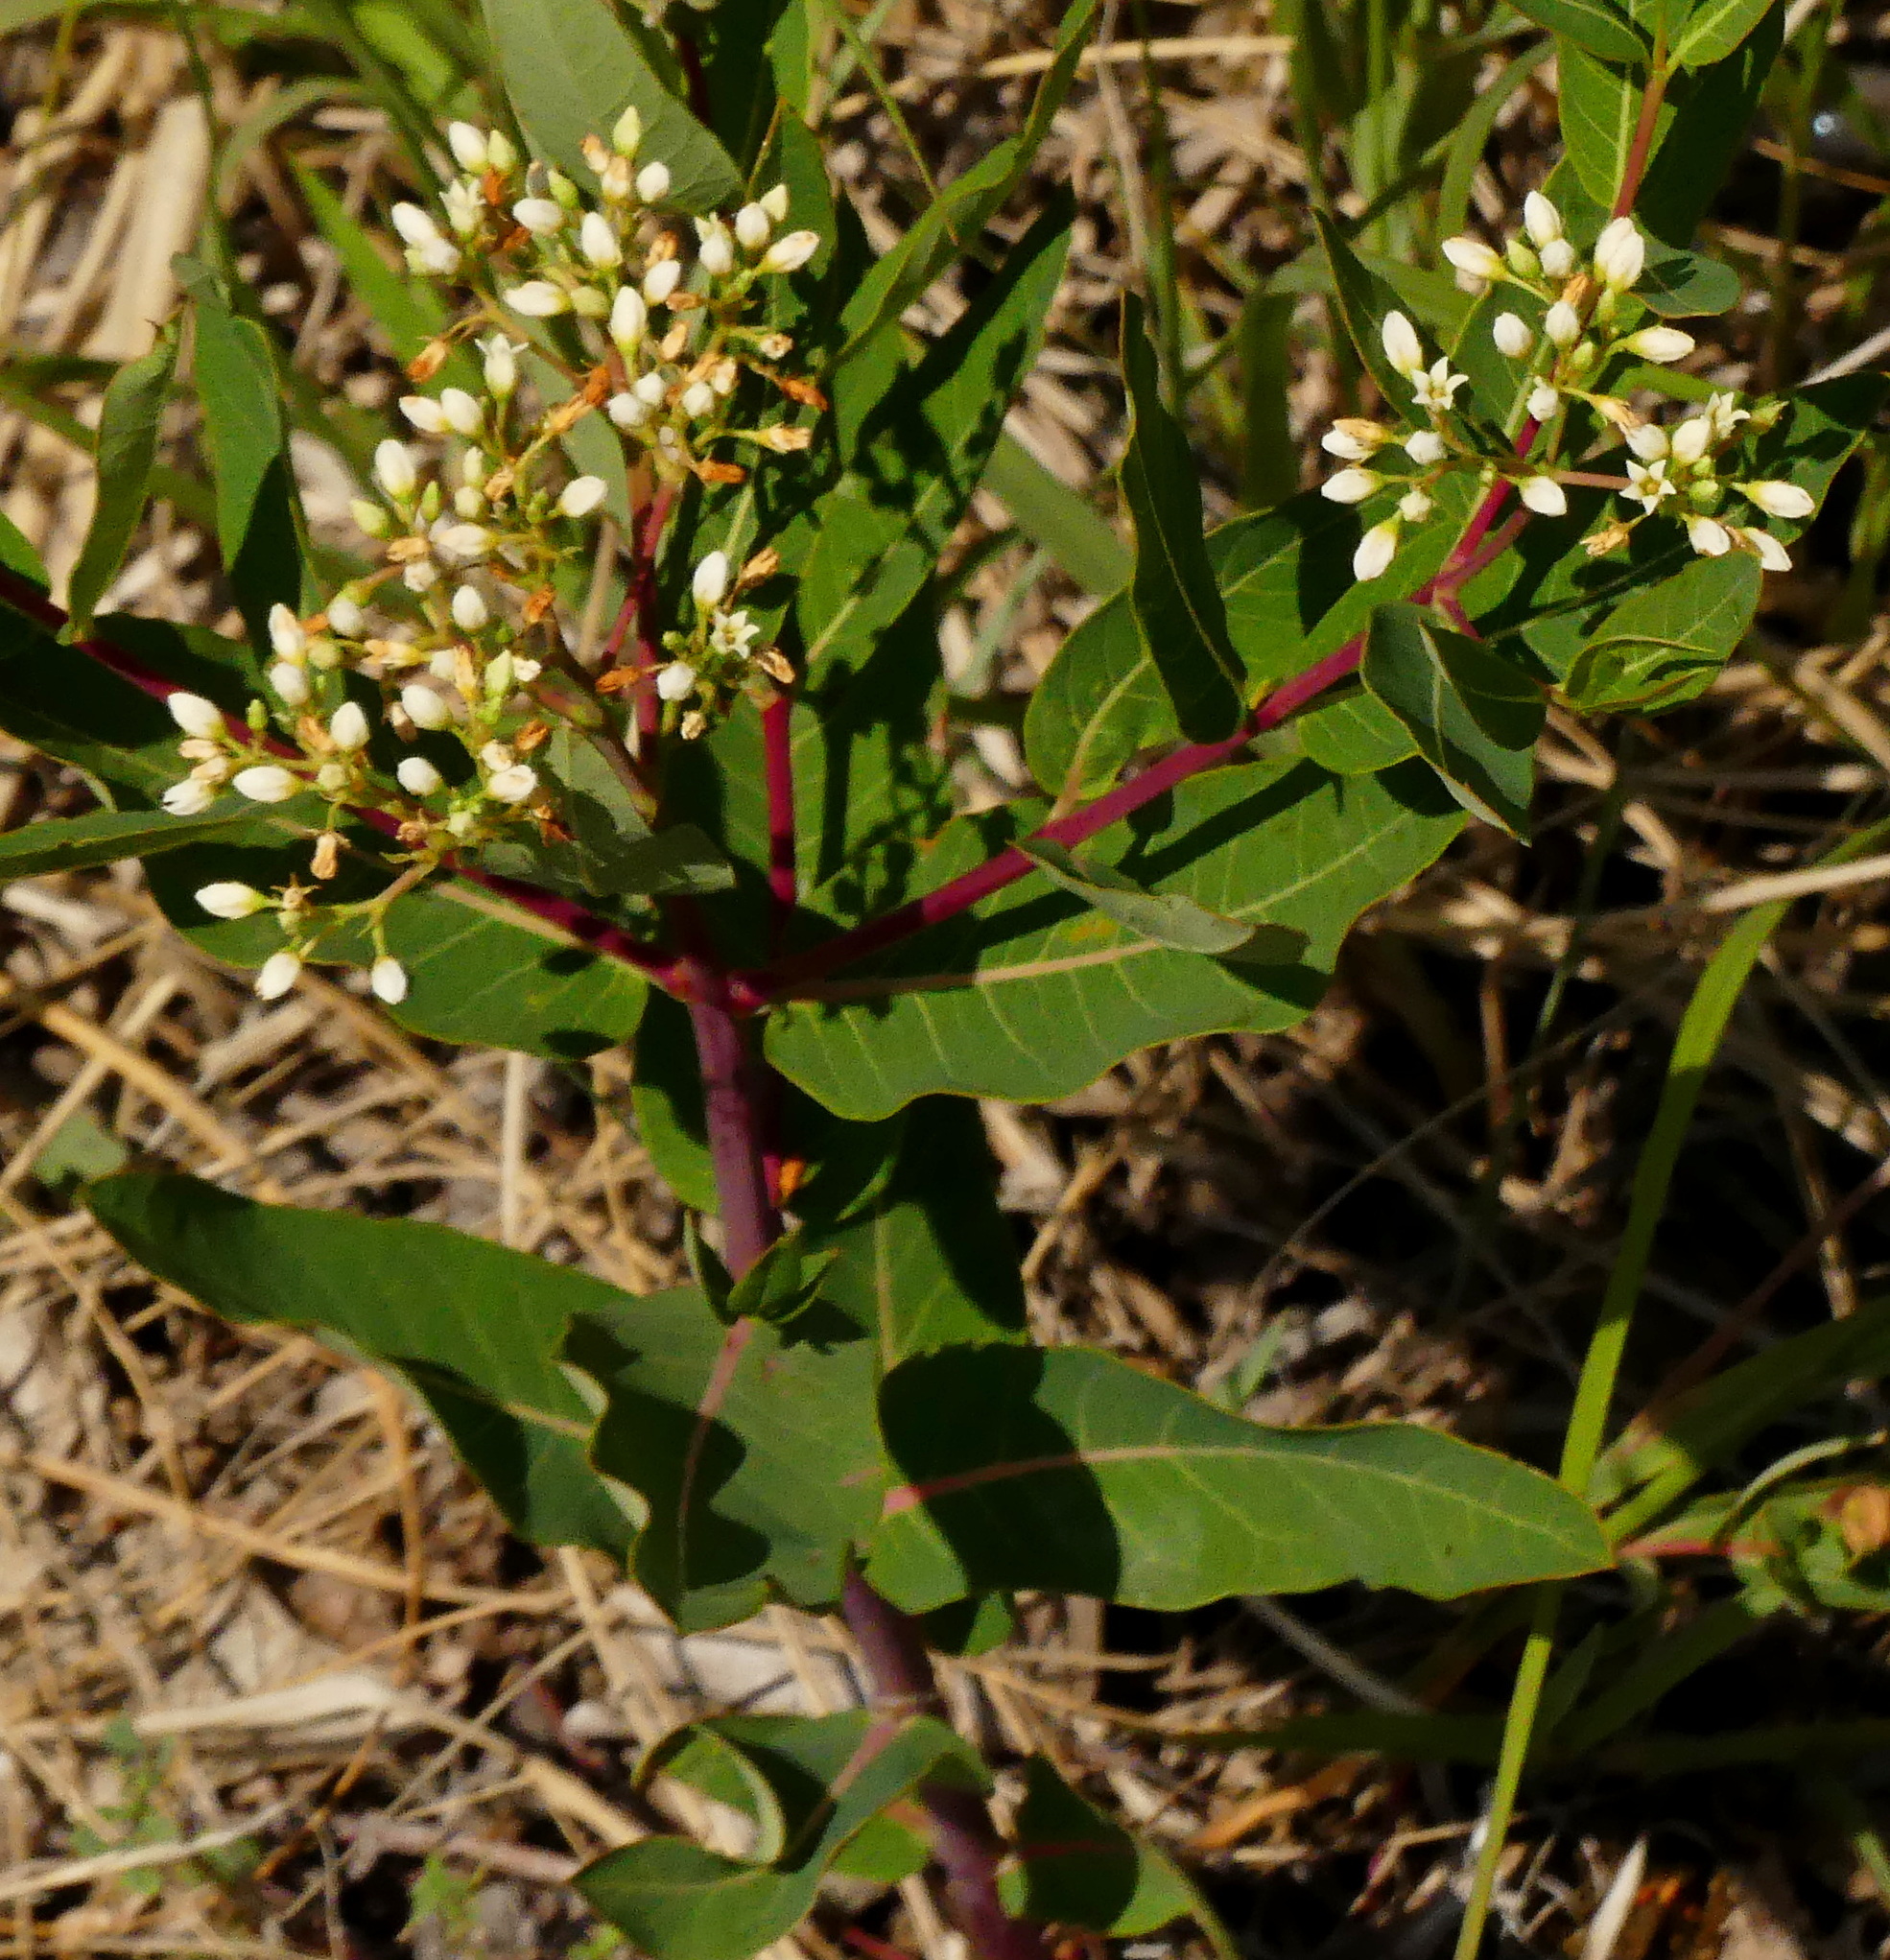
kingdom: Plantae
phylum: Tracheophyta
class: Magnoliopsida
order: Gentianales
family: Apocynaceae
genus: Apocynum
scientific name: Apocynum cannabinum
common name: Hemp dogbane
